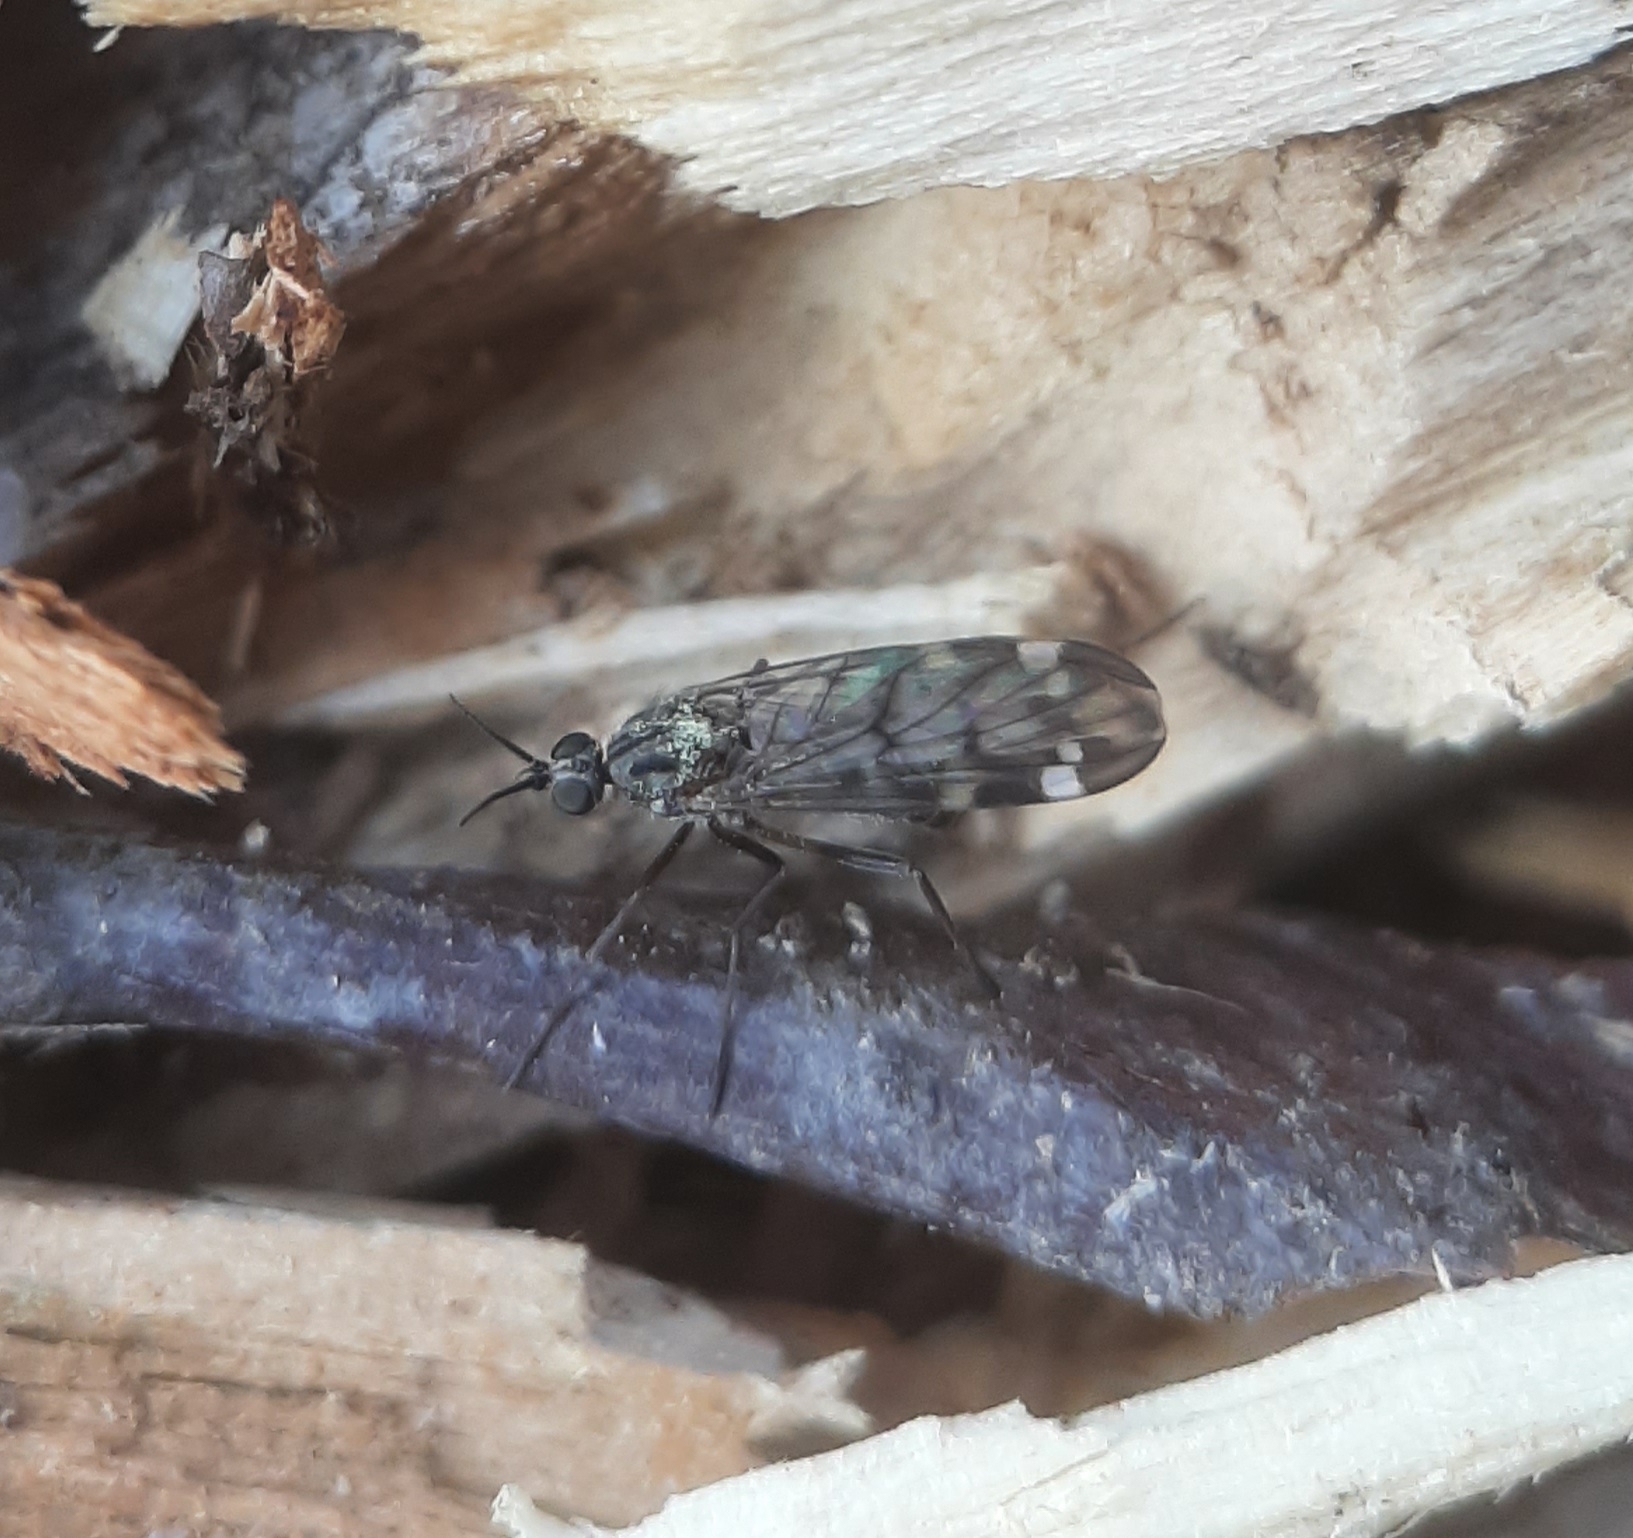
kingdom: Animalia
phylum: Arthropoda
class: Insecta
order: Diptera
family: Anisopodidae
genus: Sylvicola
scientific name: Sylvicola alternata
